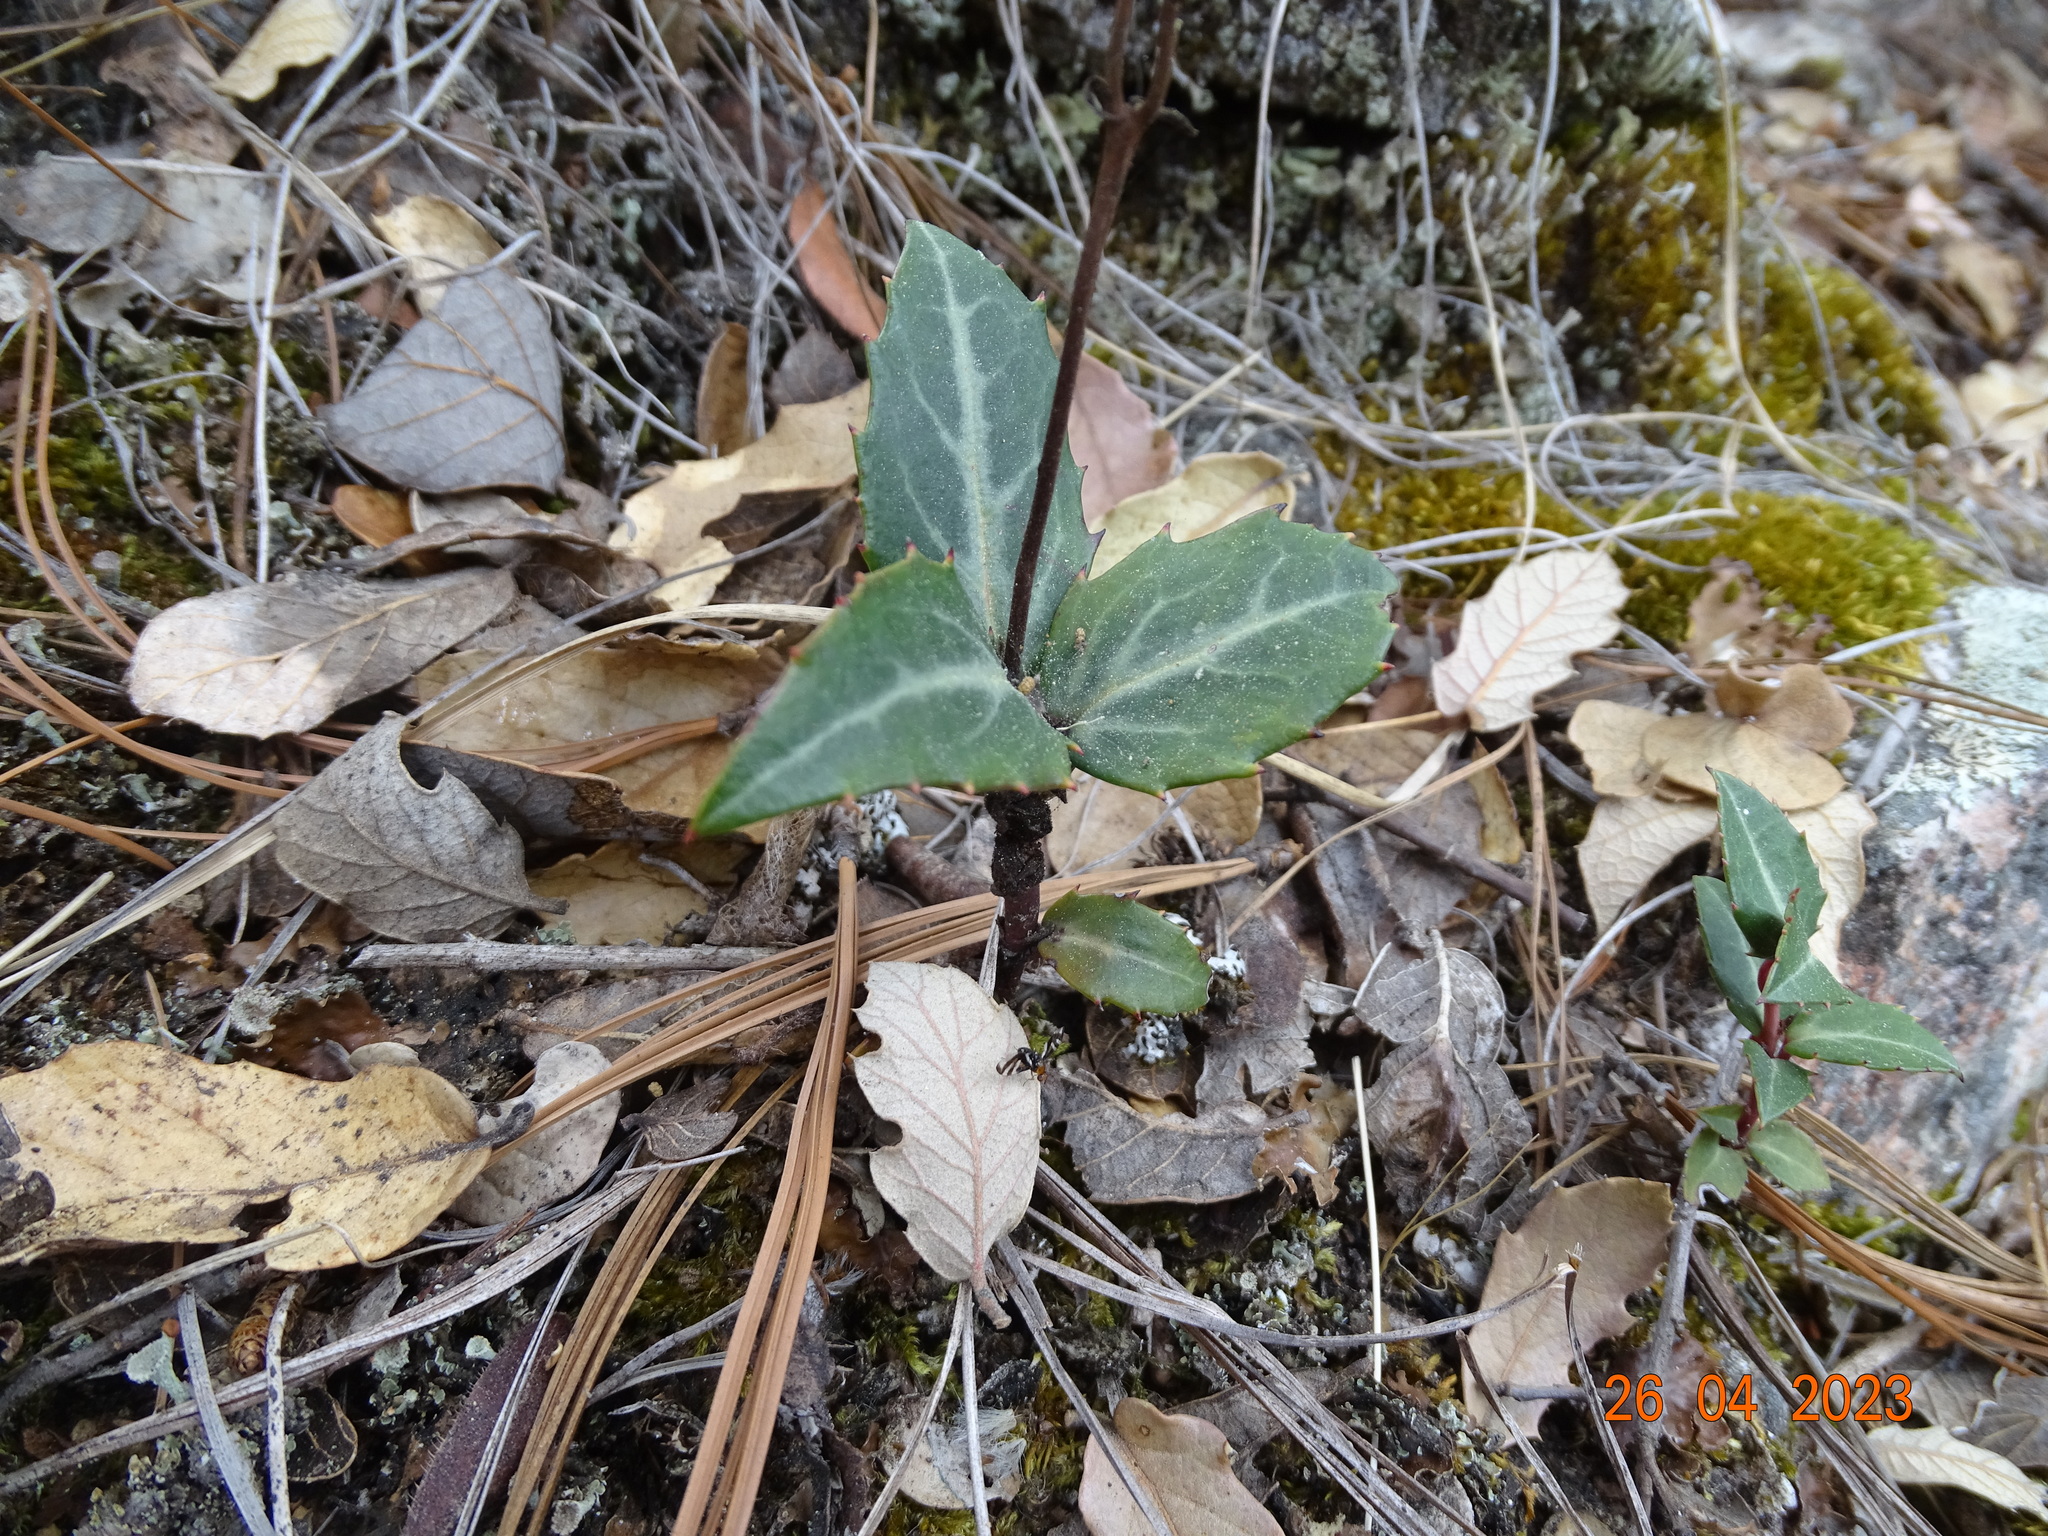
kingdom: Plantae
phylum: Tracheophyta
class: Magnoliopsida
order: Ericales
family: Ericaceae
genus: Chimaphila
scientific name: Chimaphila maculata
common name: Spotted pipsissewa
